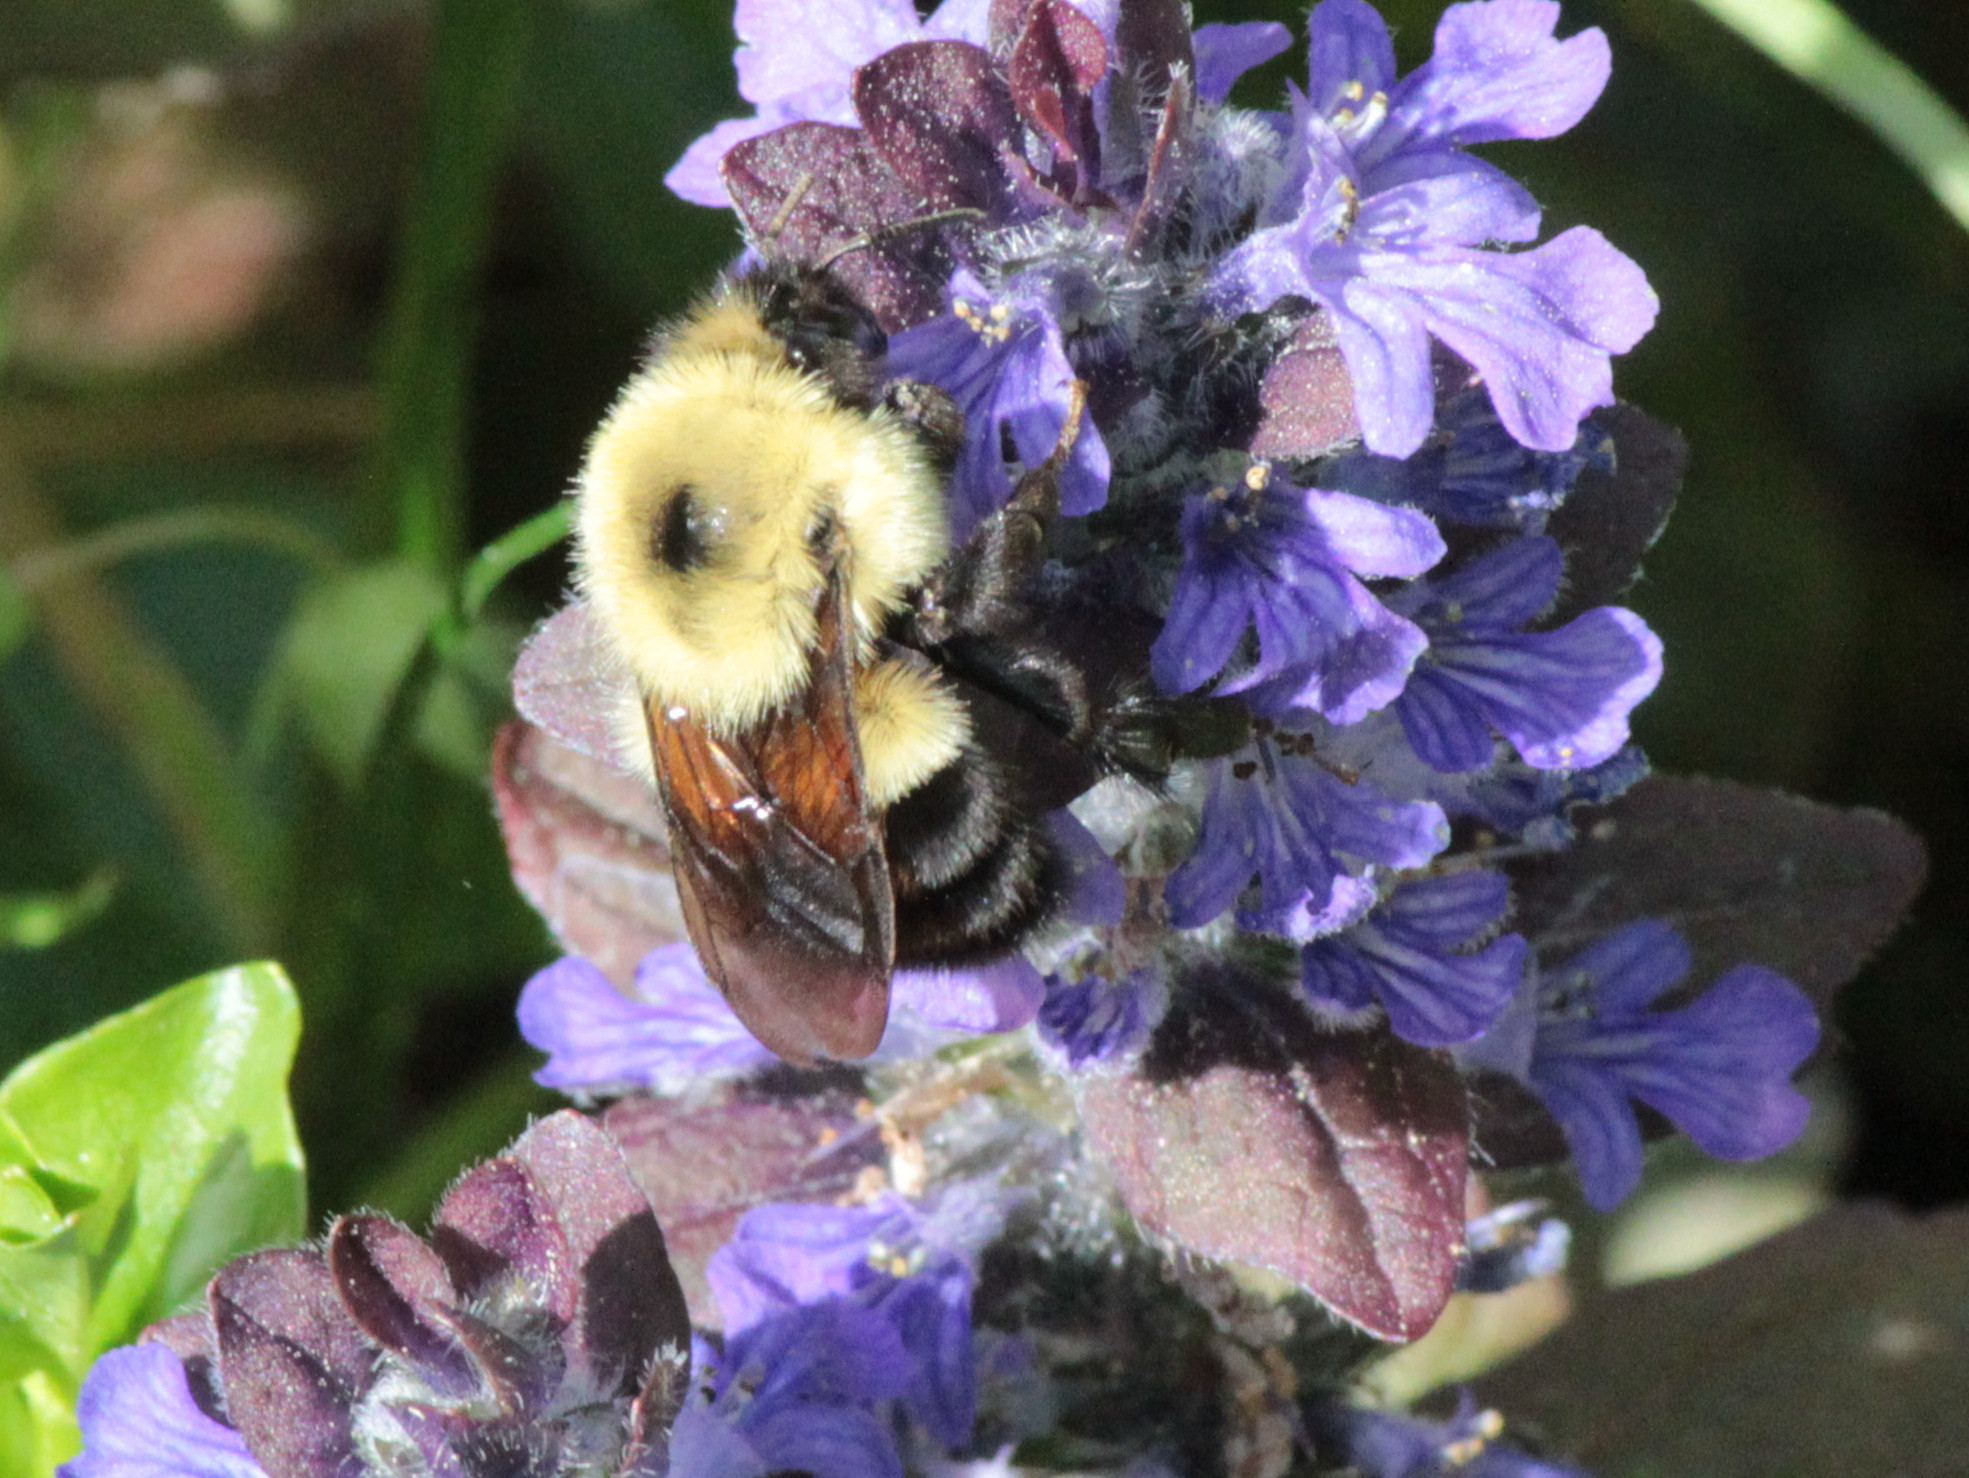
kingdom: Animalia
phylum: Arthropoda
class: Insecta
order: Hymenoptera
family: Apidae
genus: Bombus
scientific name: Bombus bimaculatus
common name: Two-spotted bumble bee
